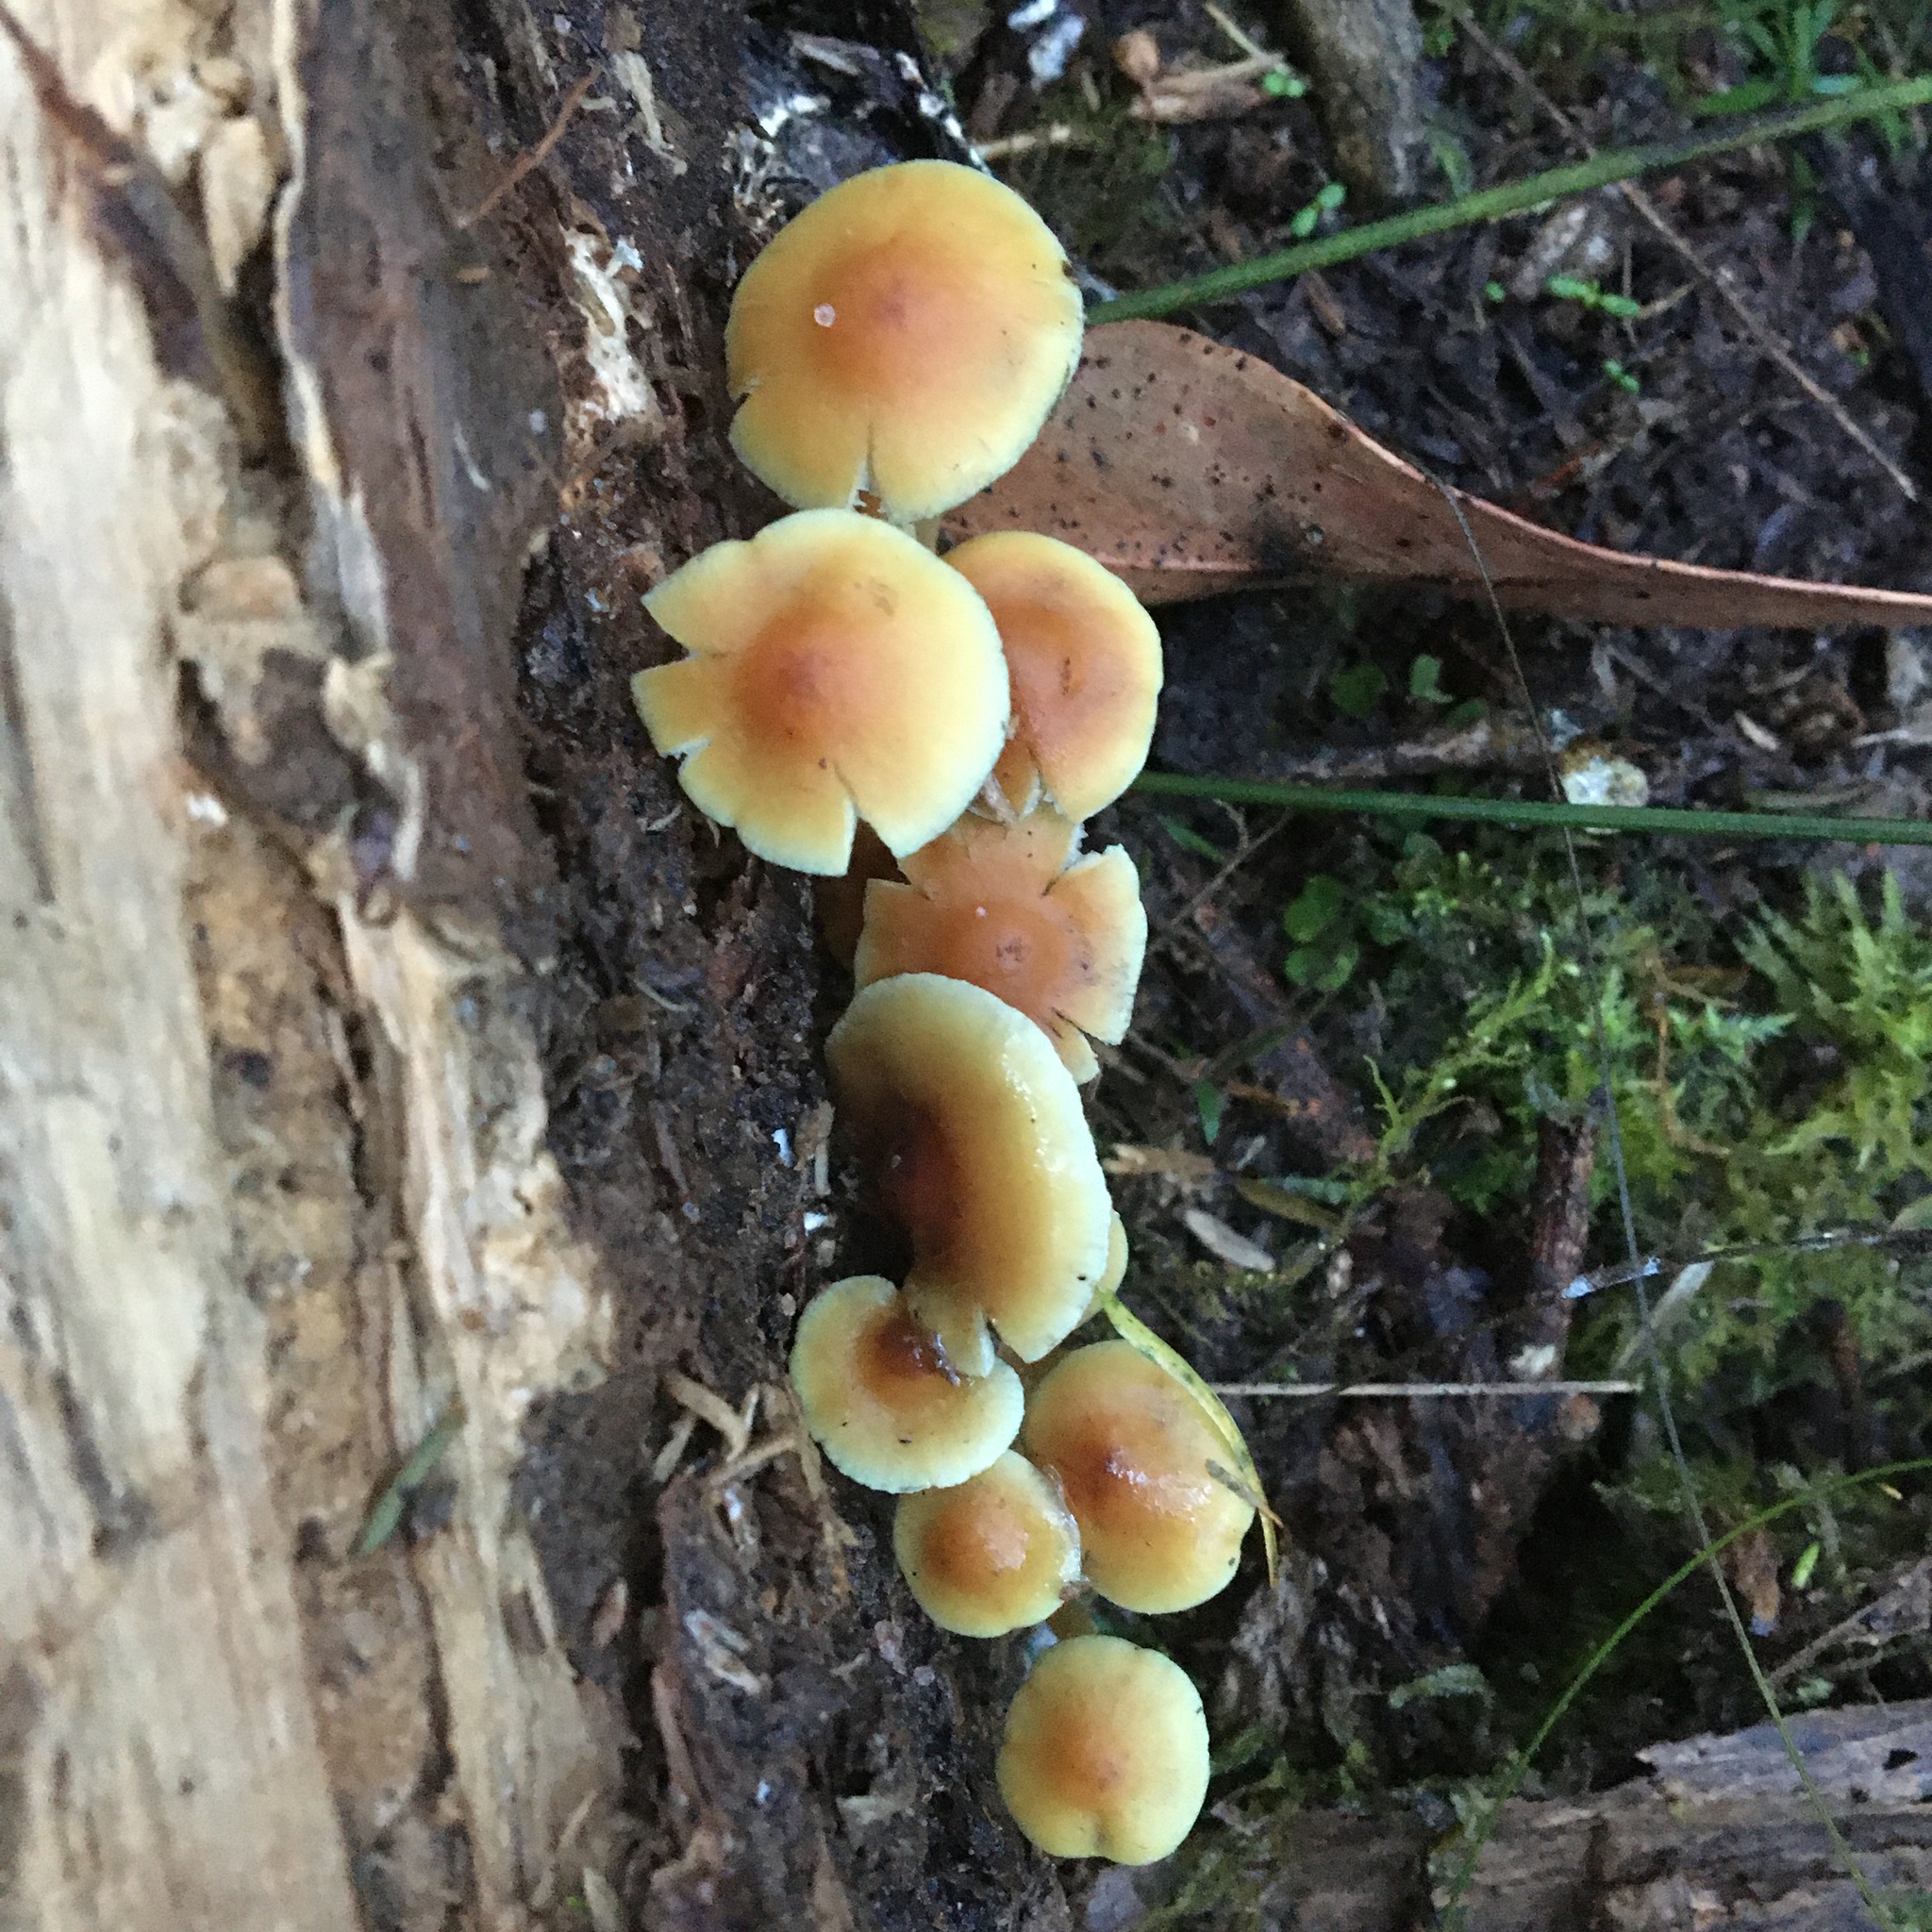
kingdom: Fungi
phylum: Basidiomycota
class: Agaricomycetes
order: Agaricales
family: Strophariaceae
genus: Hypholoma
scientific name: Hypholoma fasciculare
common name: Sulphur tuft
